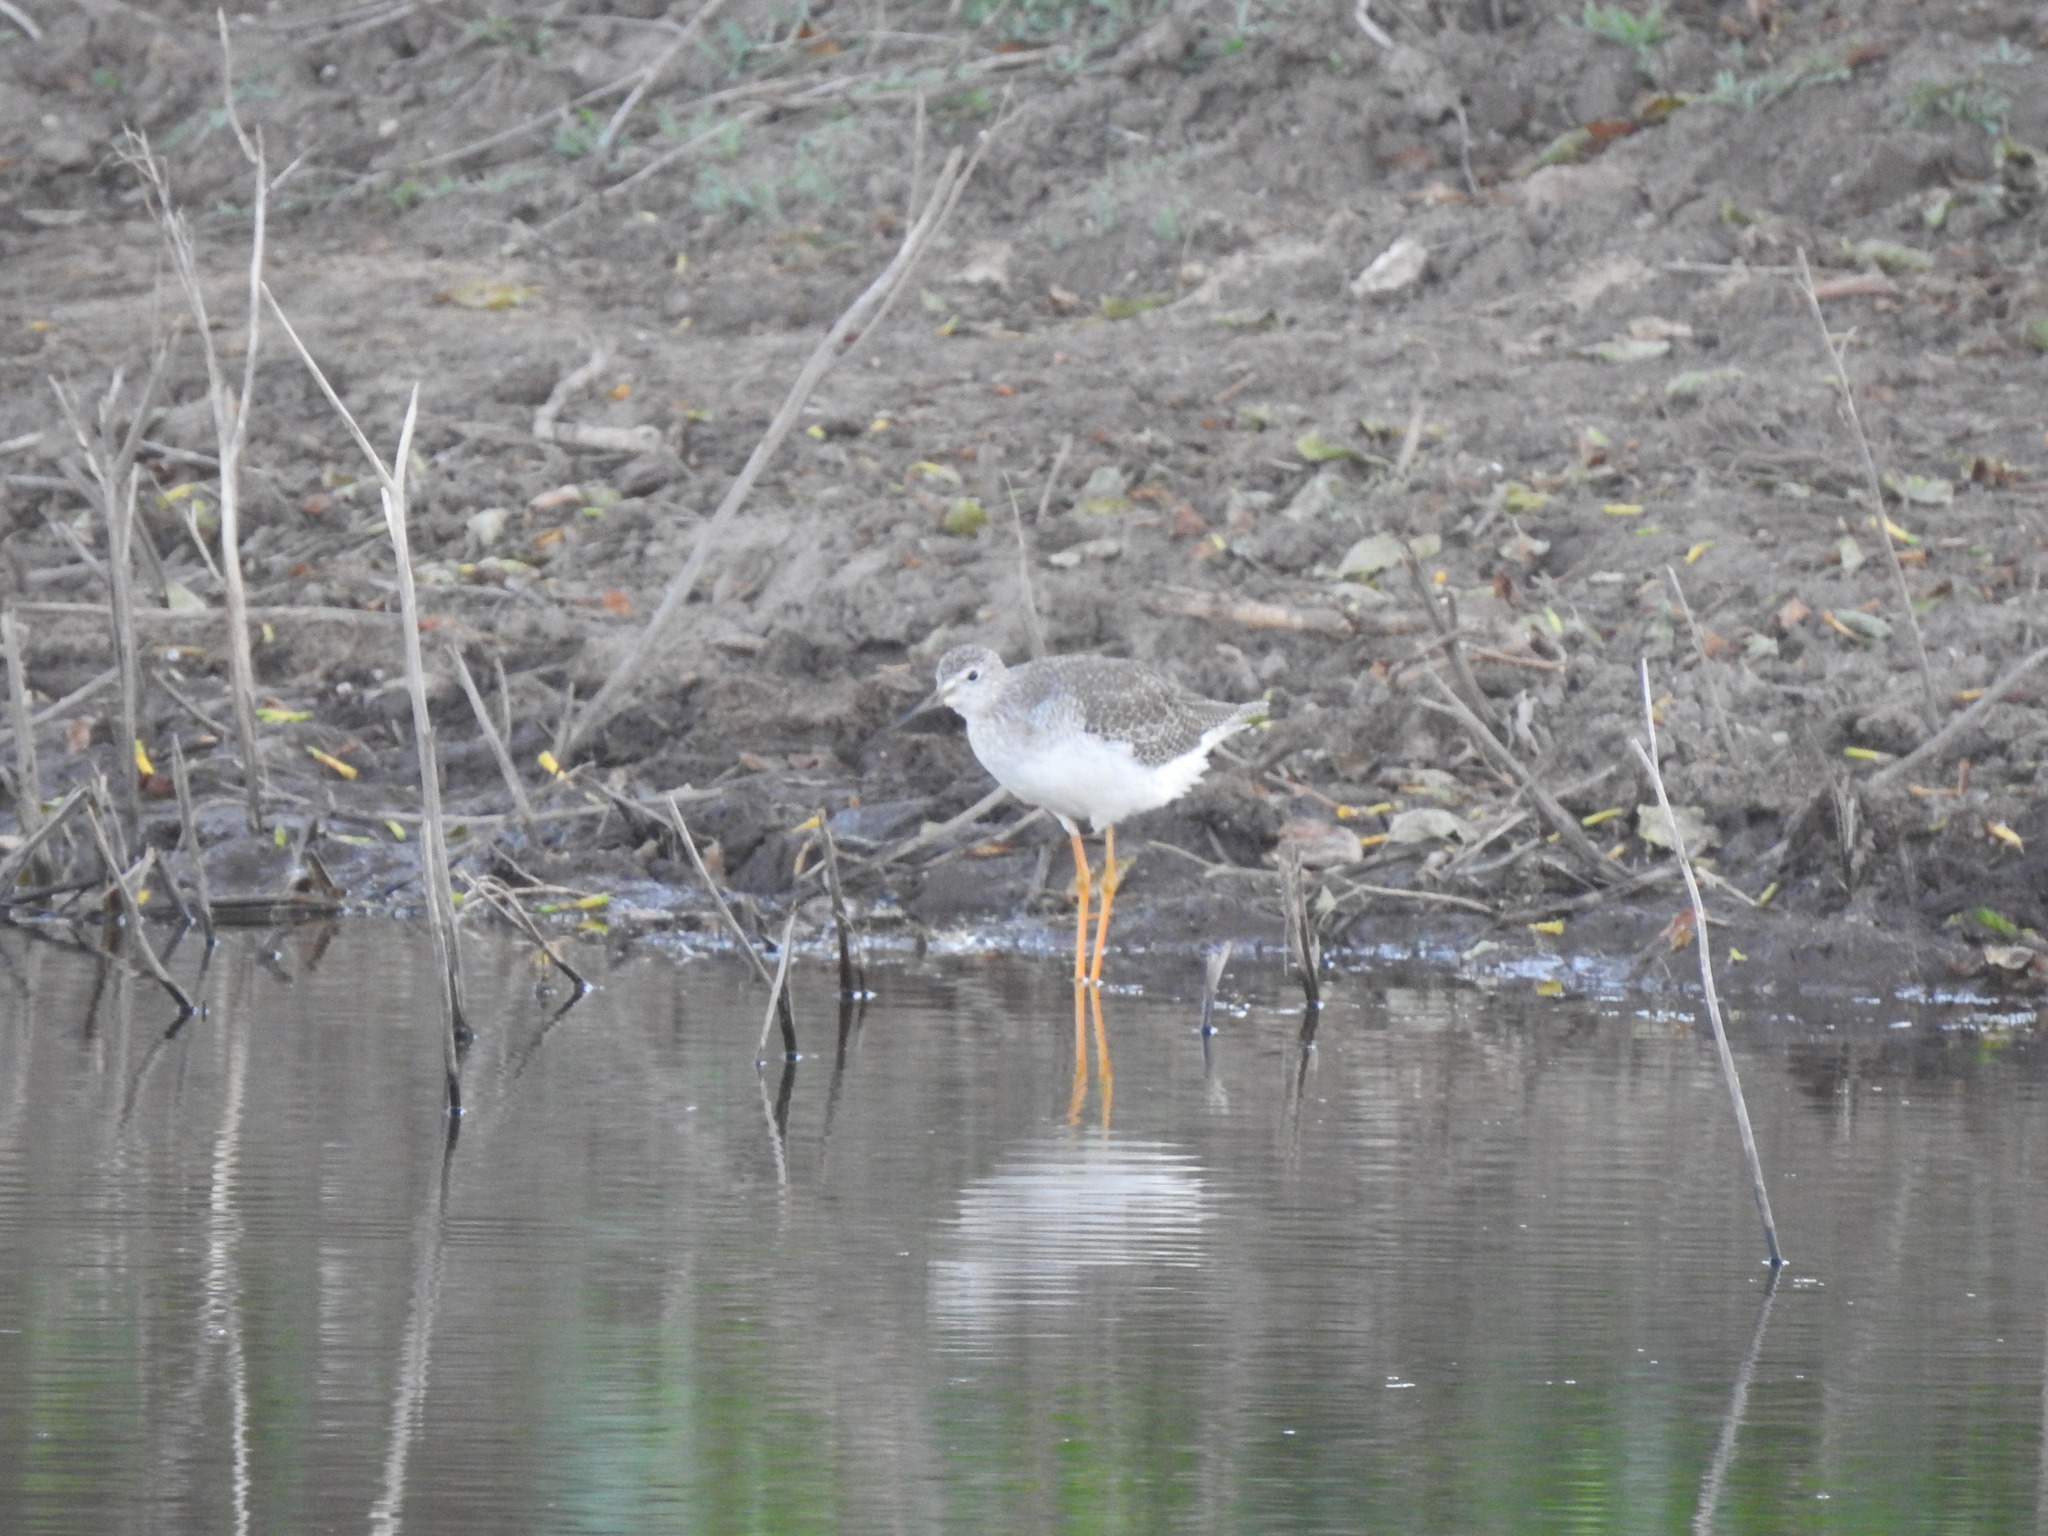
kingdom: Animalia
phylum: Chordata
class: Aves
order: Charadriiformes
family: Scolopacidae
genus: Tringa
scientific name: Tringa flavipes
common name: Lesser yellowlegs
